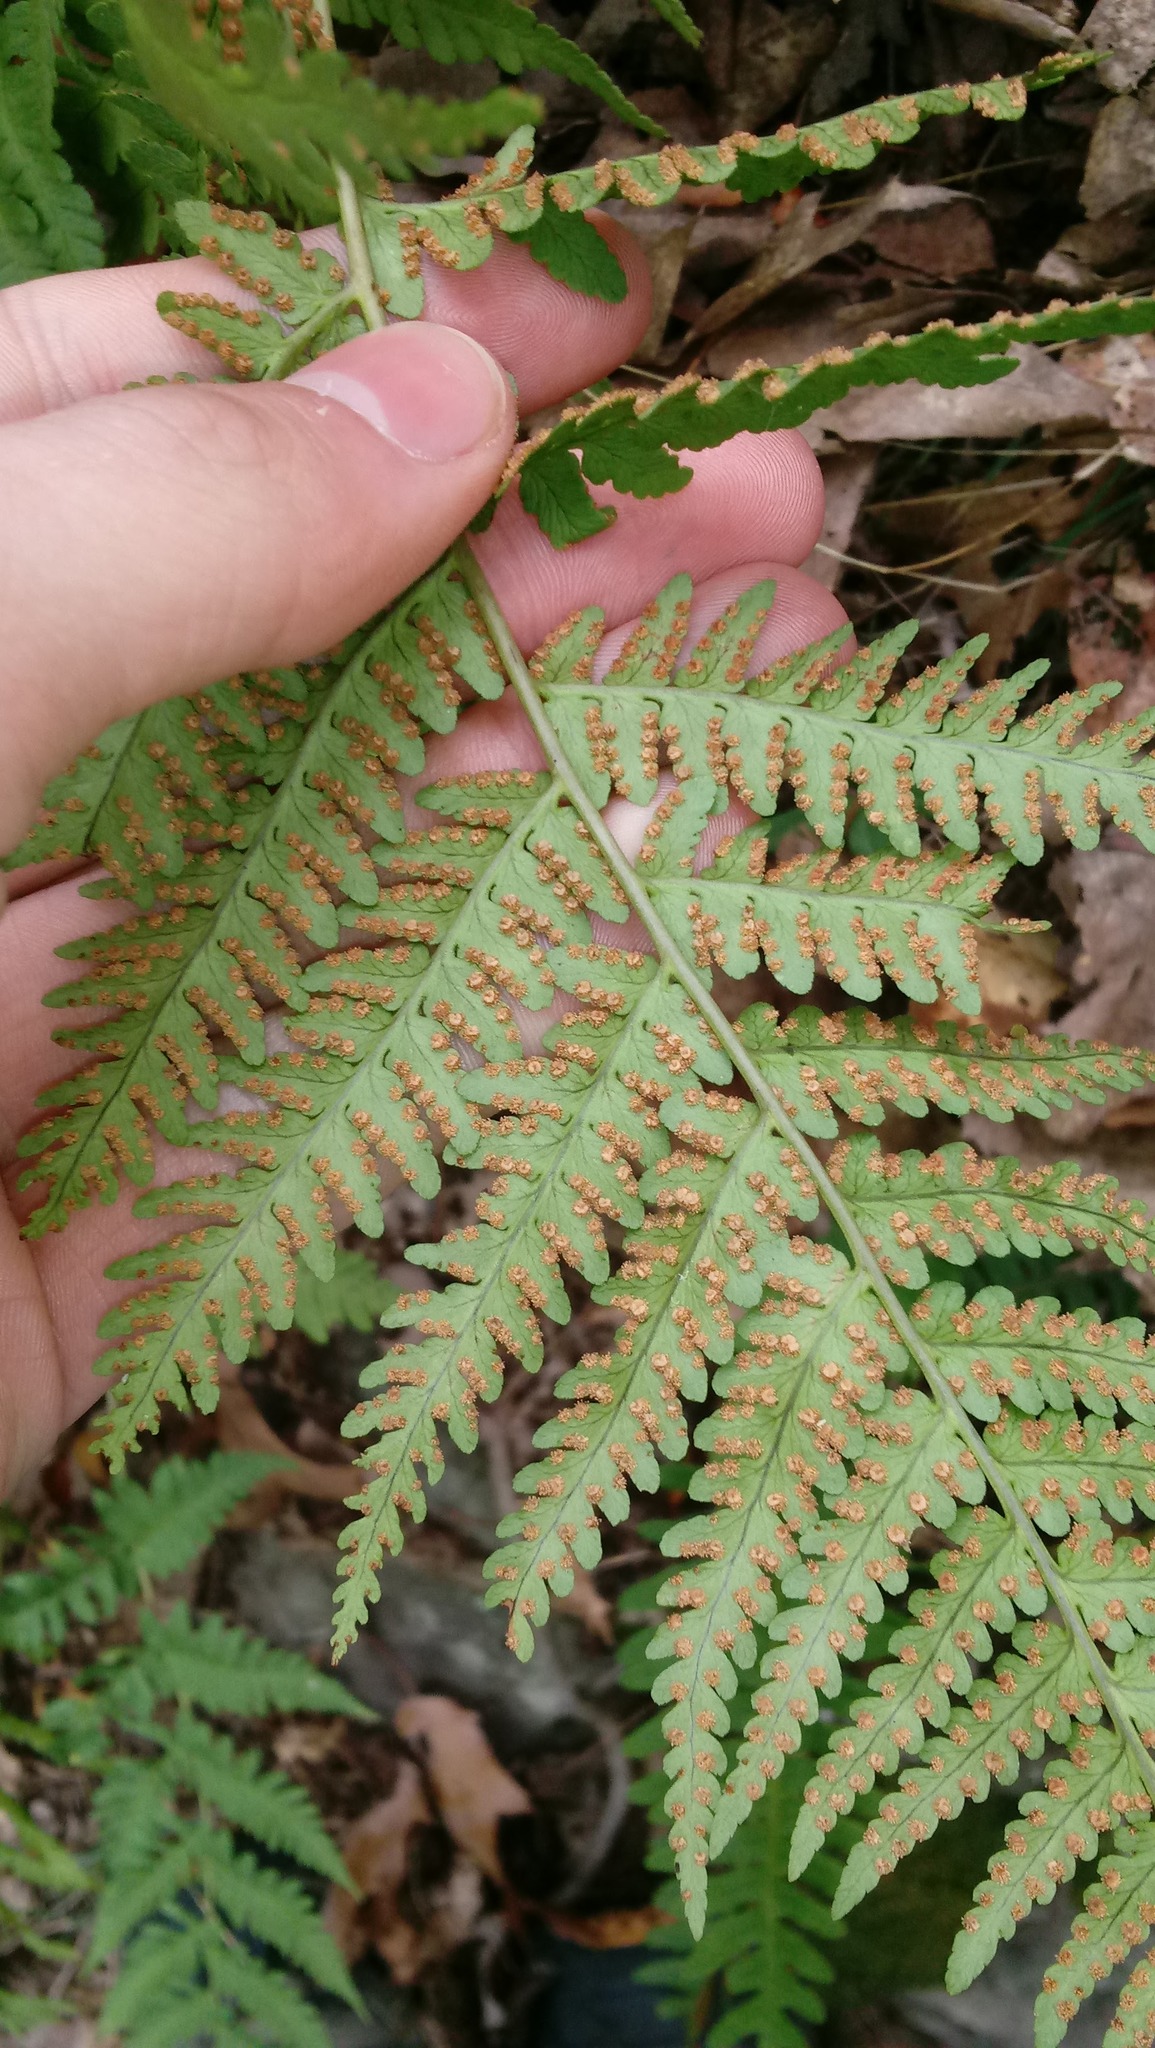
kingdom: Plantae
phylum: Tracheophyta
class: Polypodiopsida
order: Polypodiales
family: Dryopteridaceae
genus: Dryopteris
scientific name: Dryopteris marginalis
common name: Marginal wood fern
